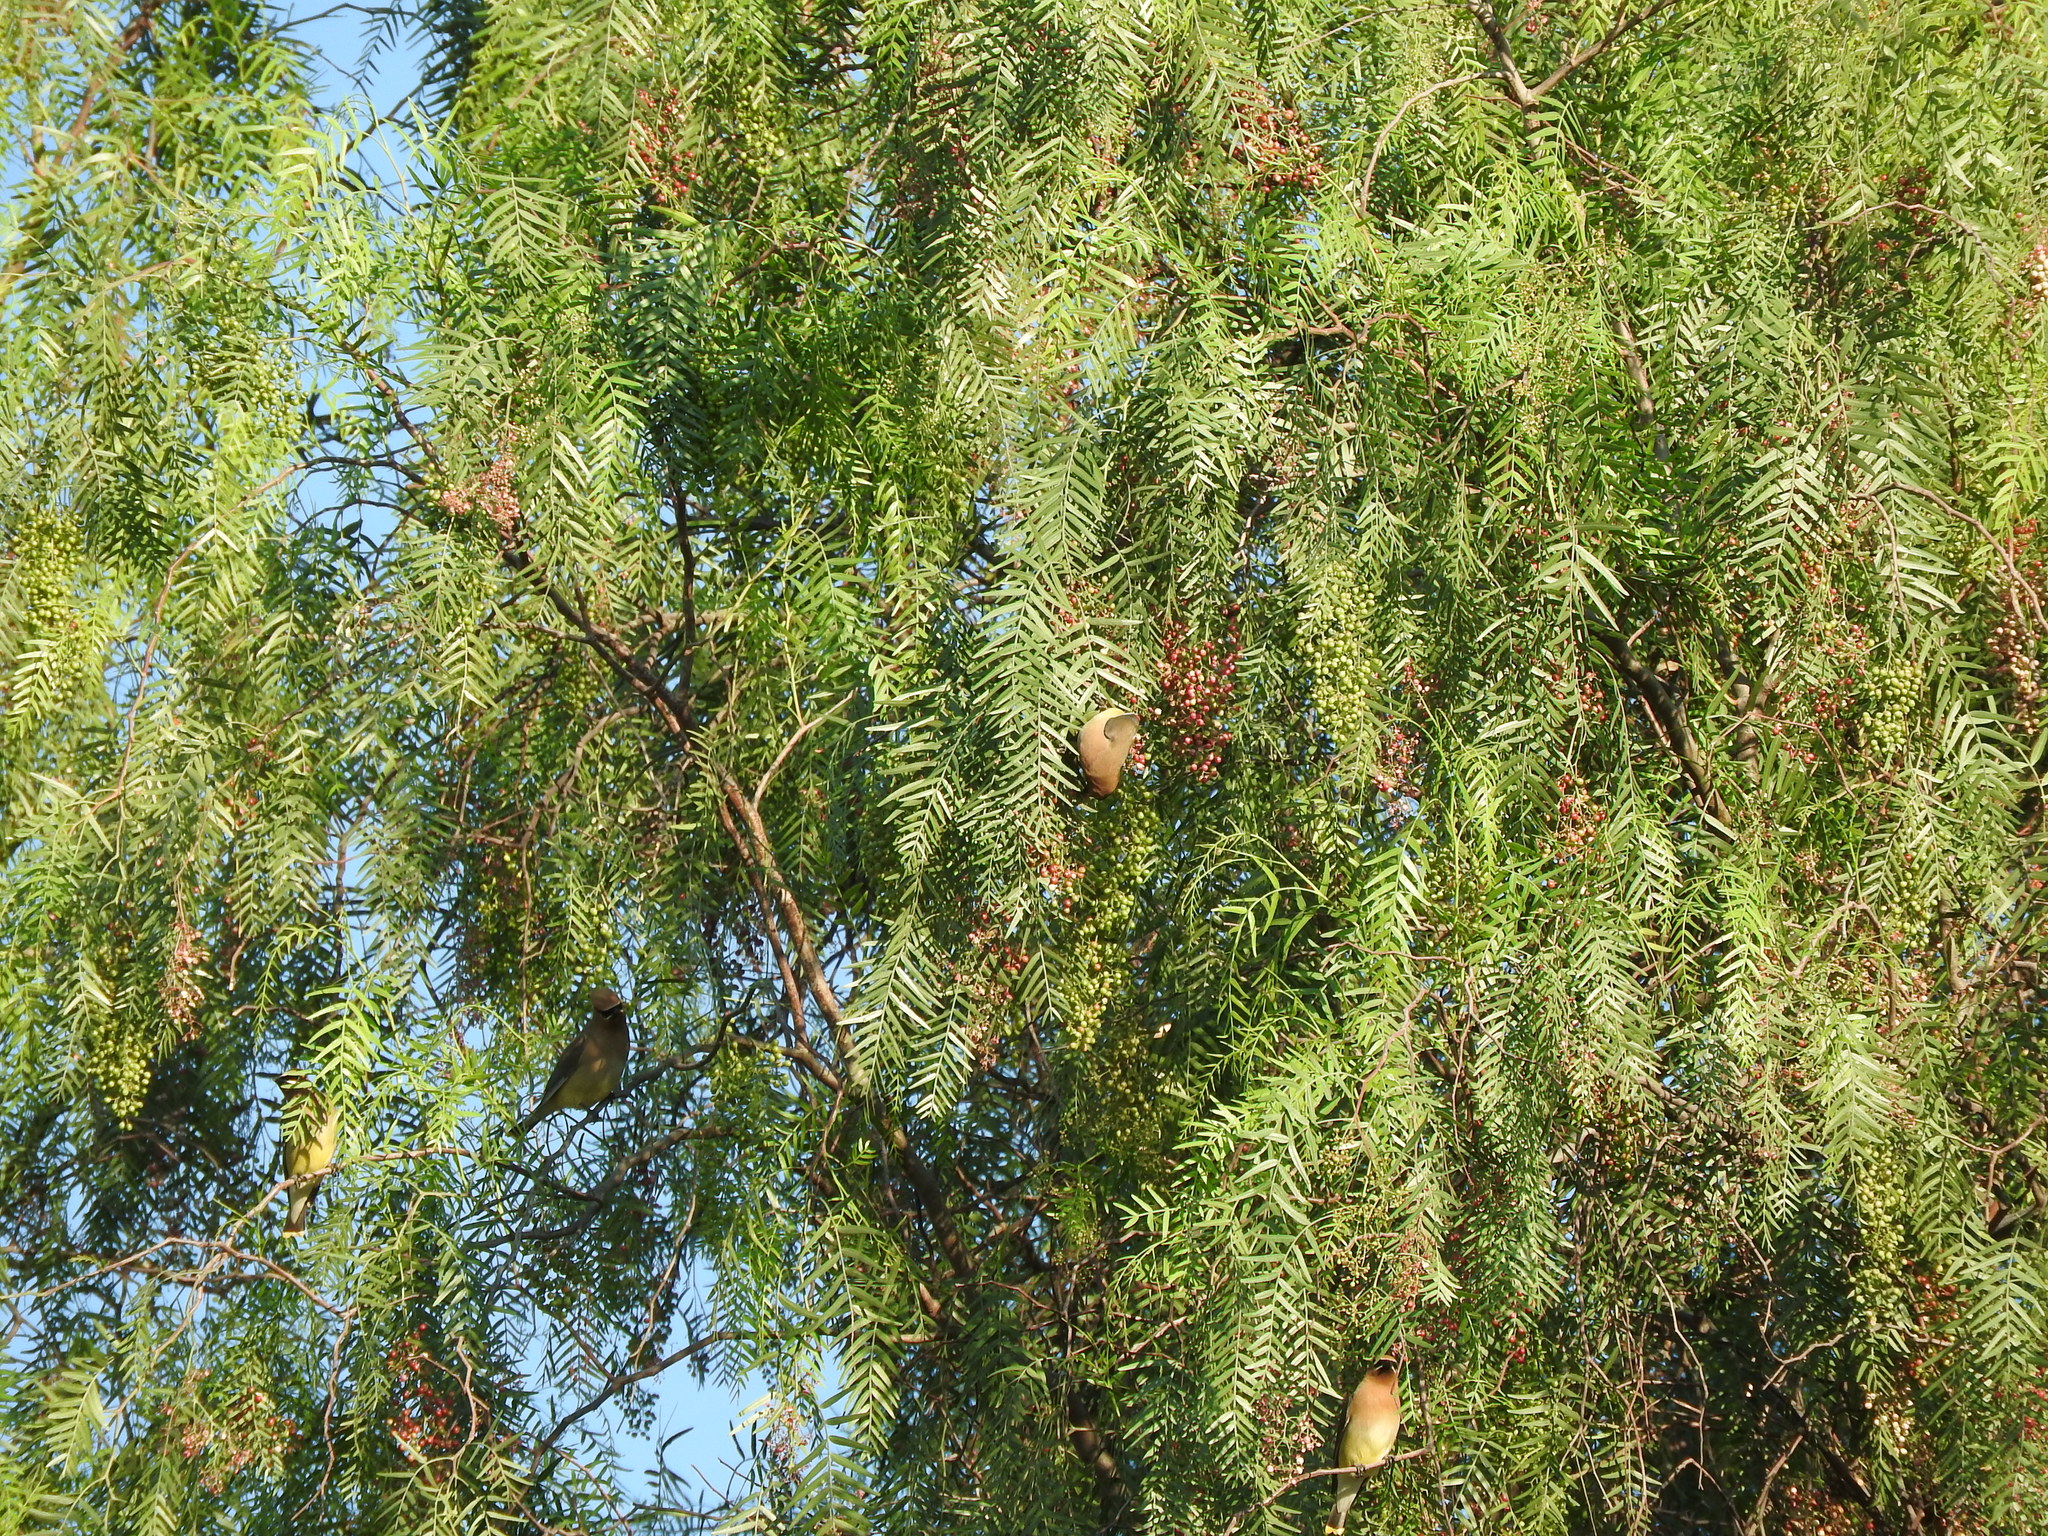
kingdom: Animalia
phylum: Chordata
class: Aves
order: Passeriformes
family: Bombycillidae
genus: Bombycilla
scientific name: Bombycilla cedrorum
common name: Cedar waxwing
